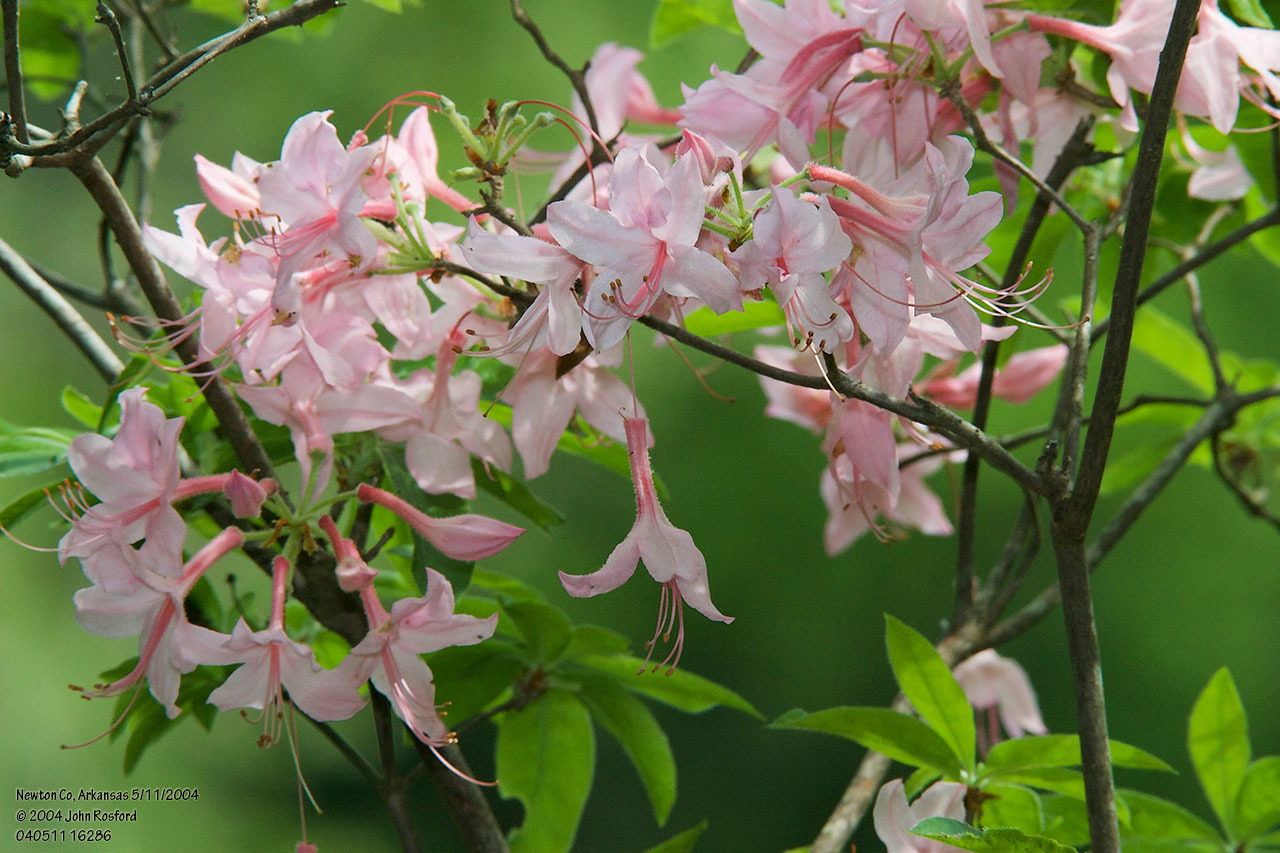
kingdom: Plantae
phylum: Tracheophyta
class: Magnoliopsida
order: Ericales
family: Ericaceae
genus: Rhododendron
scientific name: Rhododendron roseum
